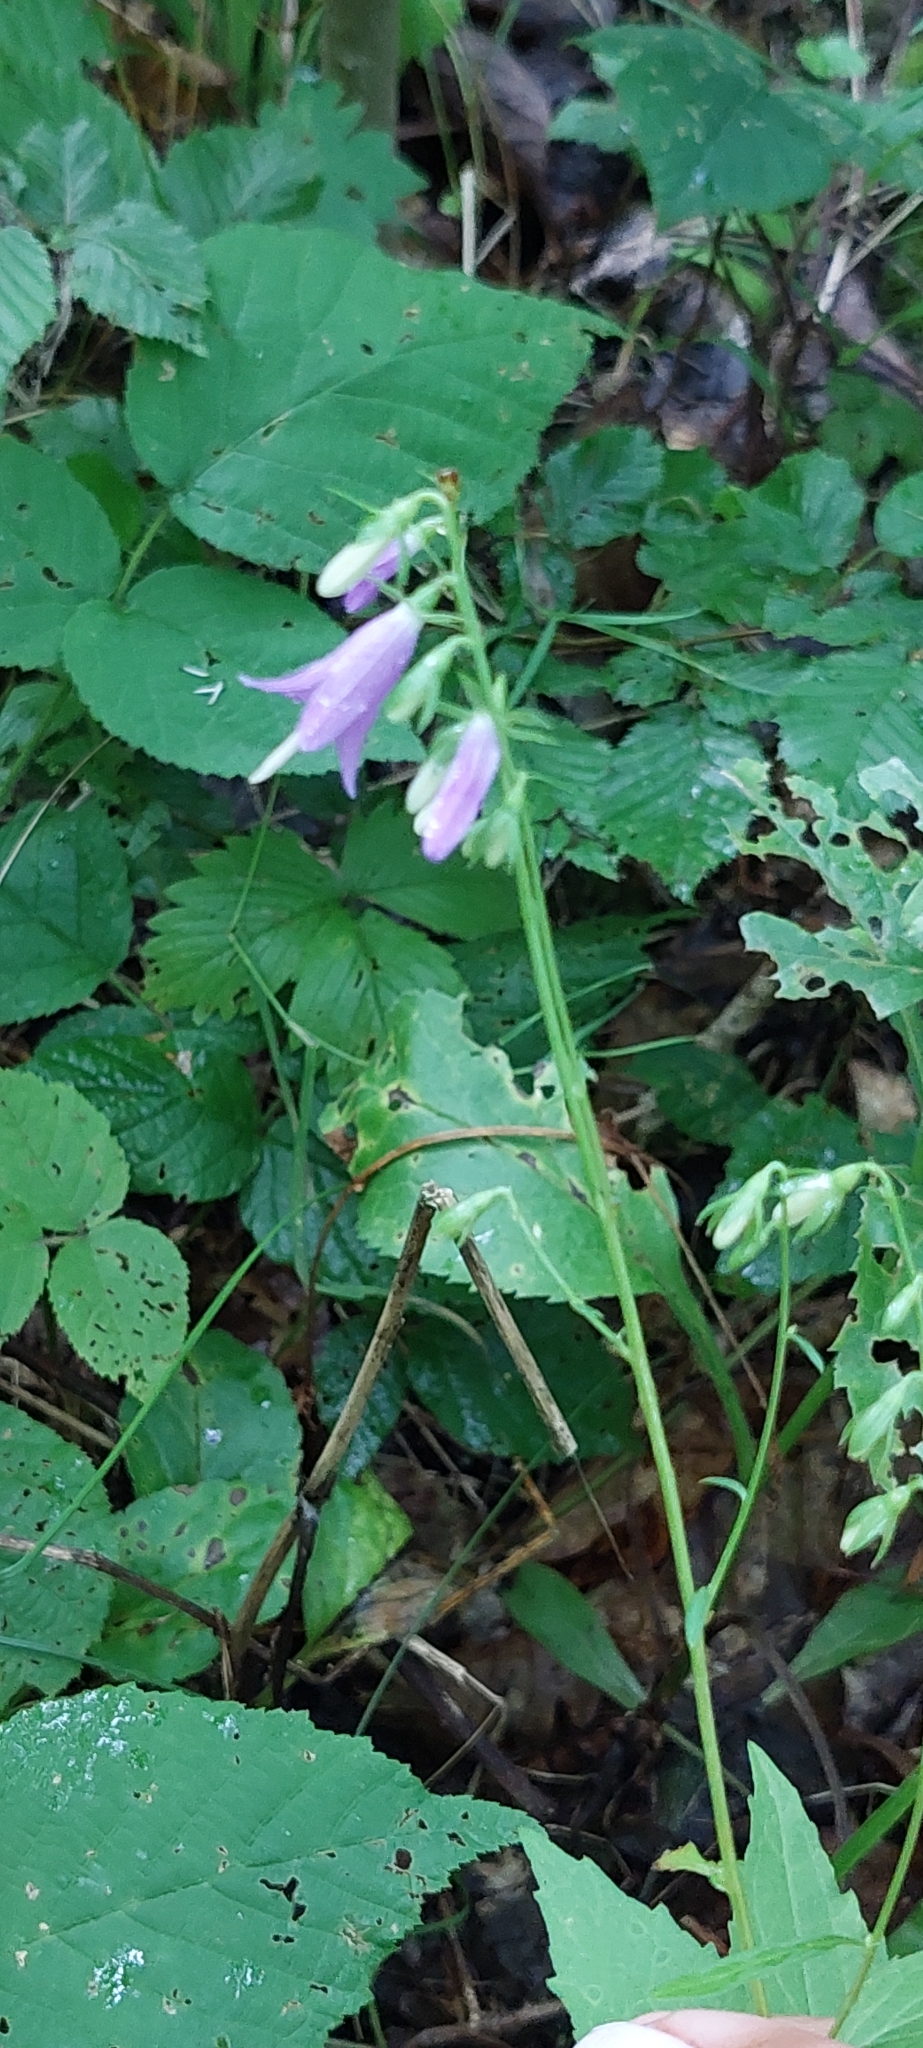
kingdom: Plantae
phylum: Tracheophyta
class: Magnoliopsida
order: Asterales
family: Campanulaceae
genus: Campanula
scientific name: Campanula rapunculoides
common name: Creeping bellflower
